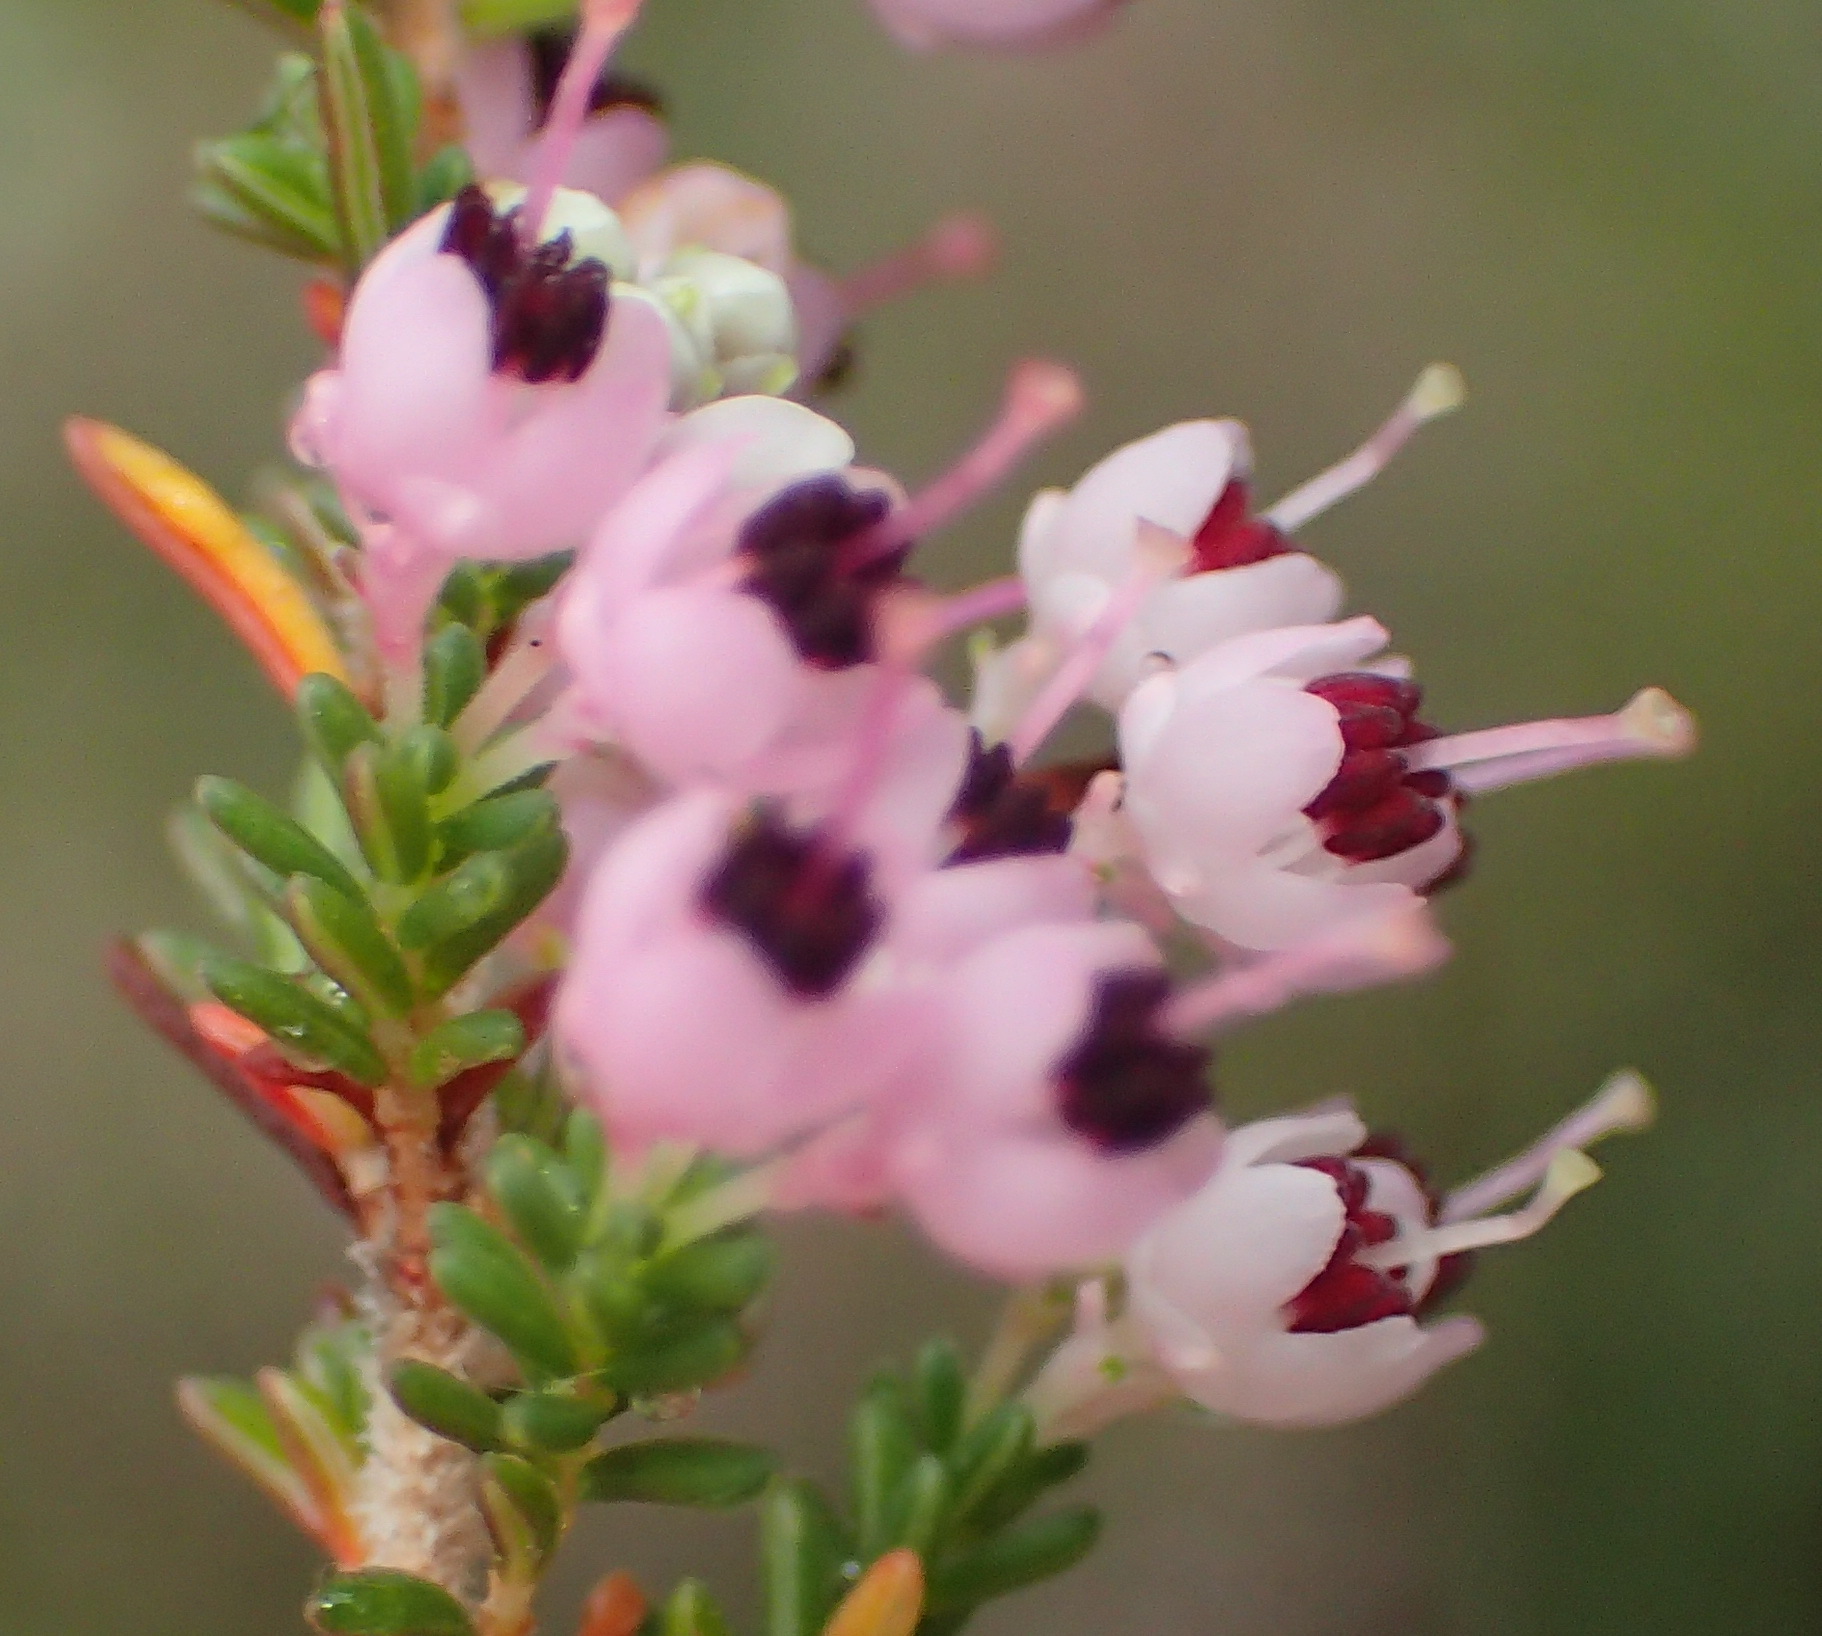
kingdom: Plantae
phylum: Tracheophyta
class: Magnoliopsida
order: Ericales
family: Ericaceae
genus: Erica
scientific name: Erica sparsa
